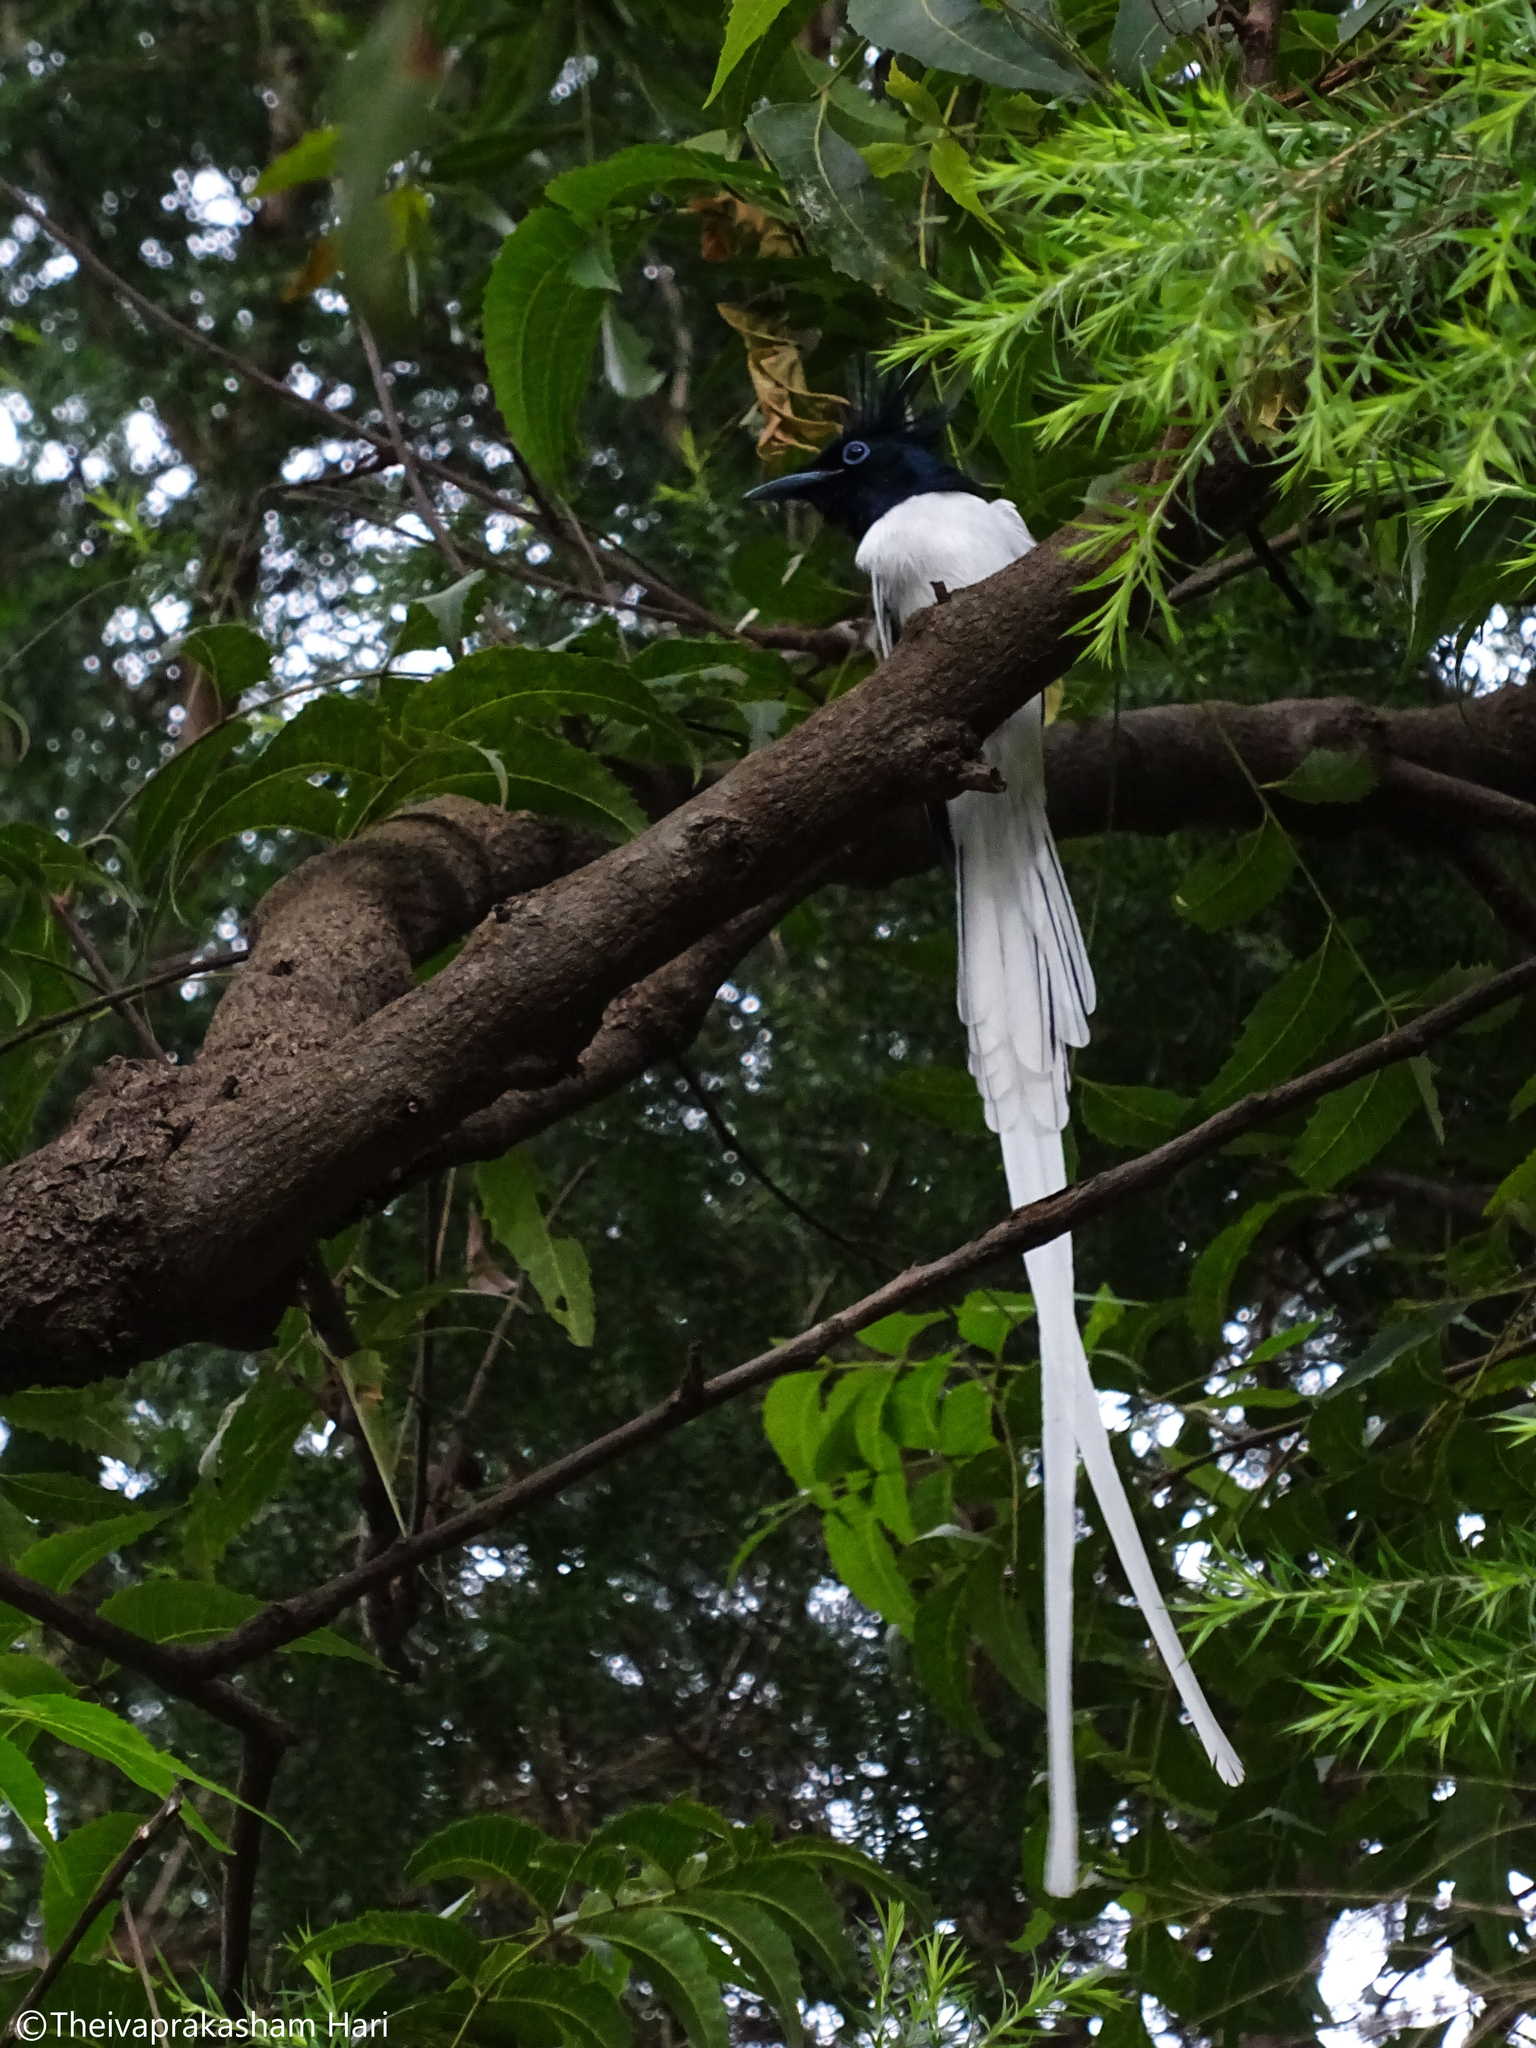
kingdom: Animalia
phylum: Chordata
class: Aves
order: Passeriformes
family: Monarchidae
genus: Terpsiphone
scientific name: Terpsiphone paradisi
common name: Indian paradise flycatcher
